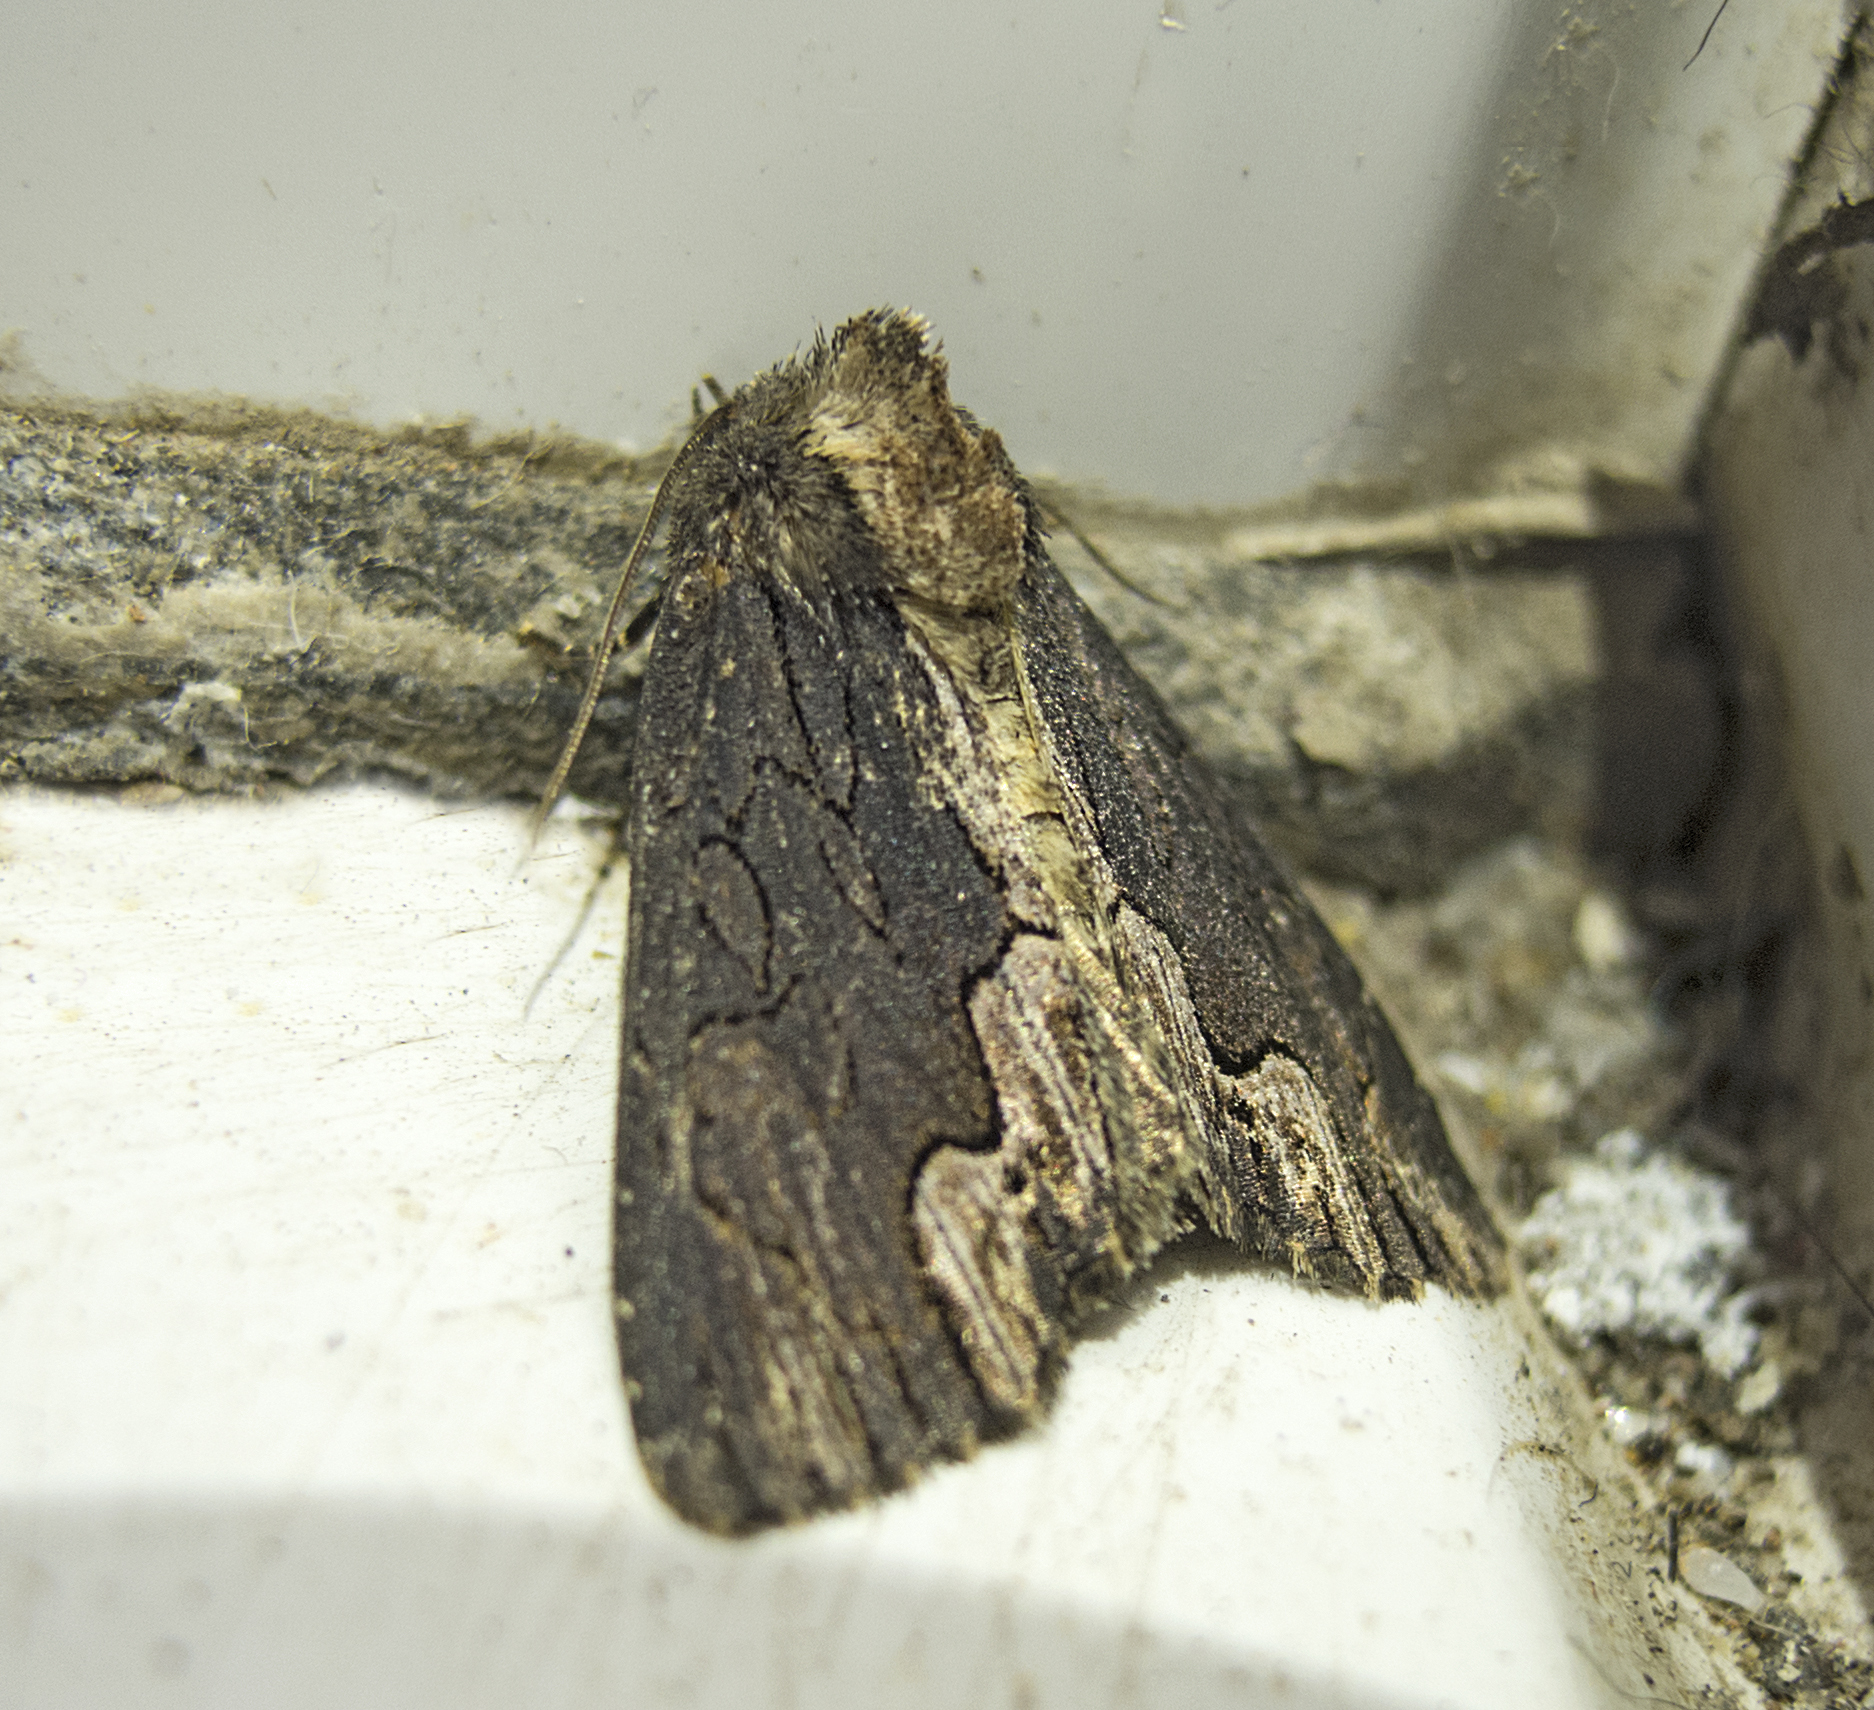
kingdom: Animalia
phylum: Arthropoda
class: Insecta
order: Lepidoptera
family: Noctuidae
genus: Dypterygia
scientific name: Dypterygia scabriuscula
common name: Bird's wing
